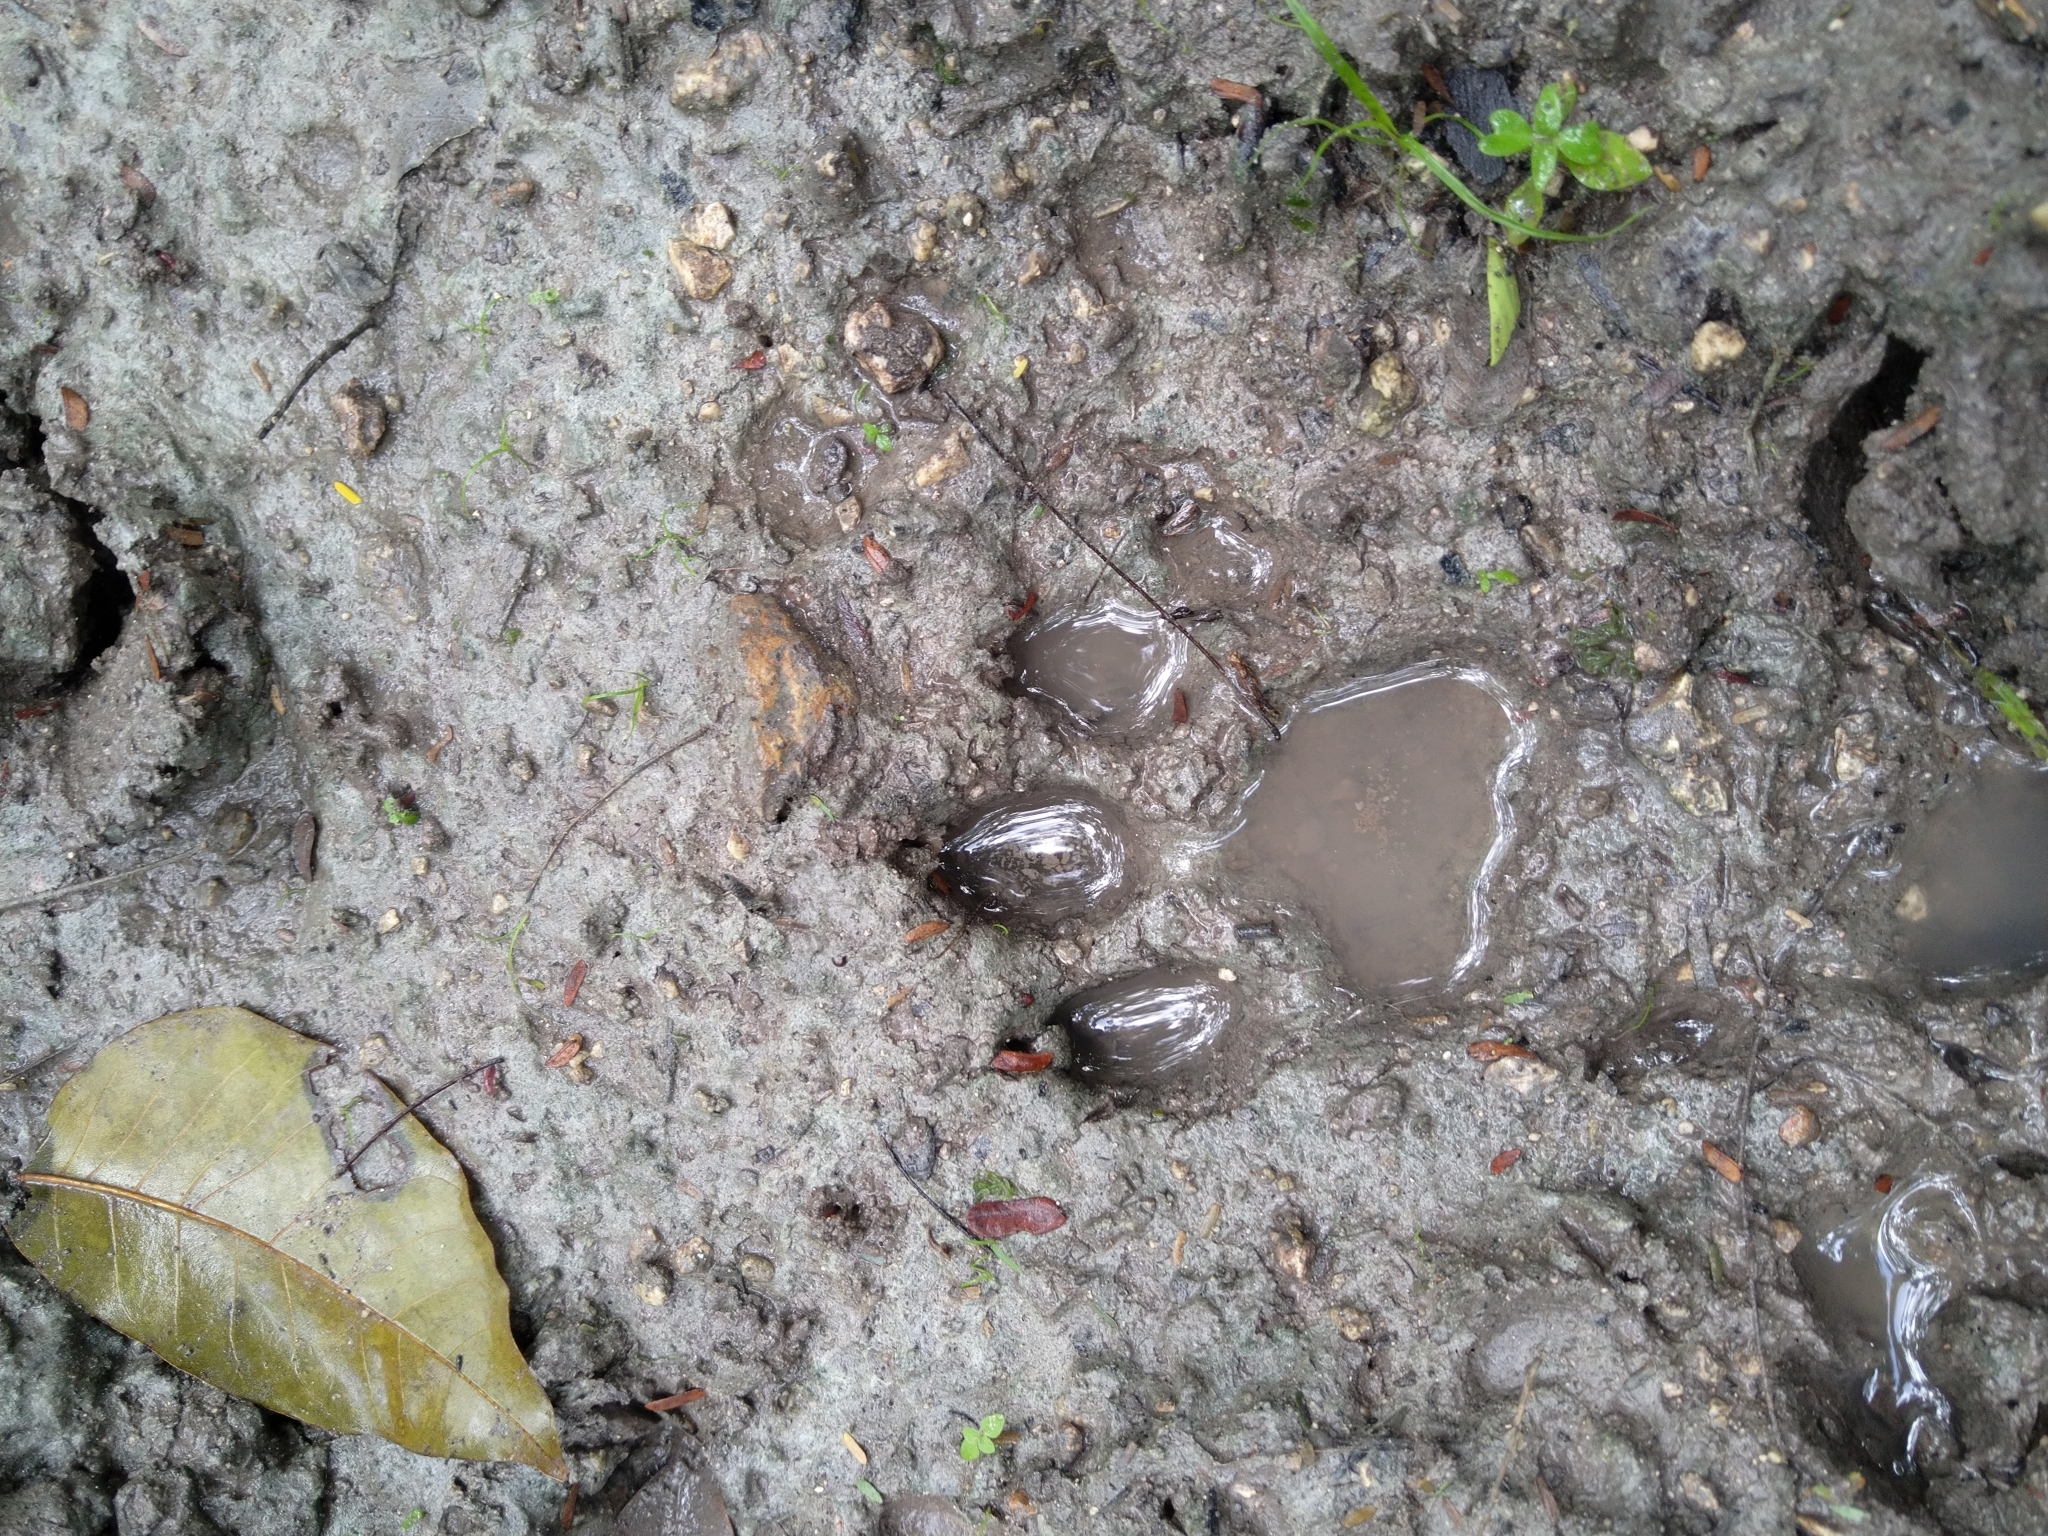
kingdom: Animalia
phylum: Chordata
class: Mammalia
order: Carnivora
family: Felidae
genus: Panthera
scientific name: Panthera onca
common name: Jaguar
